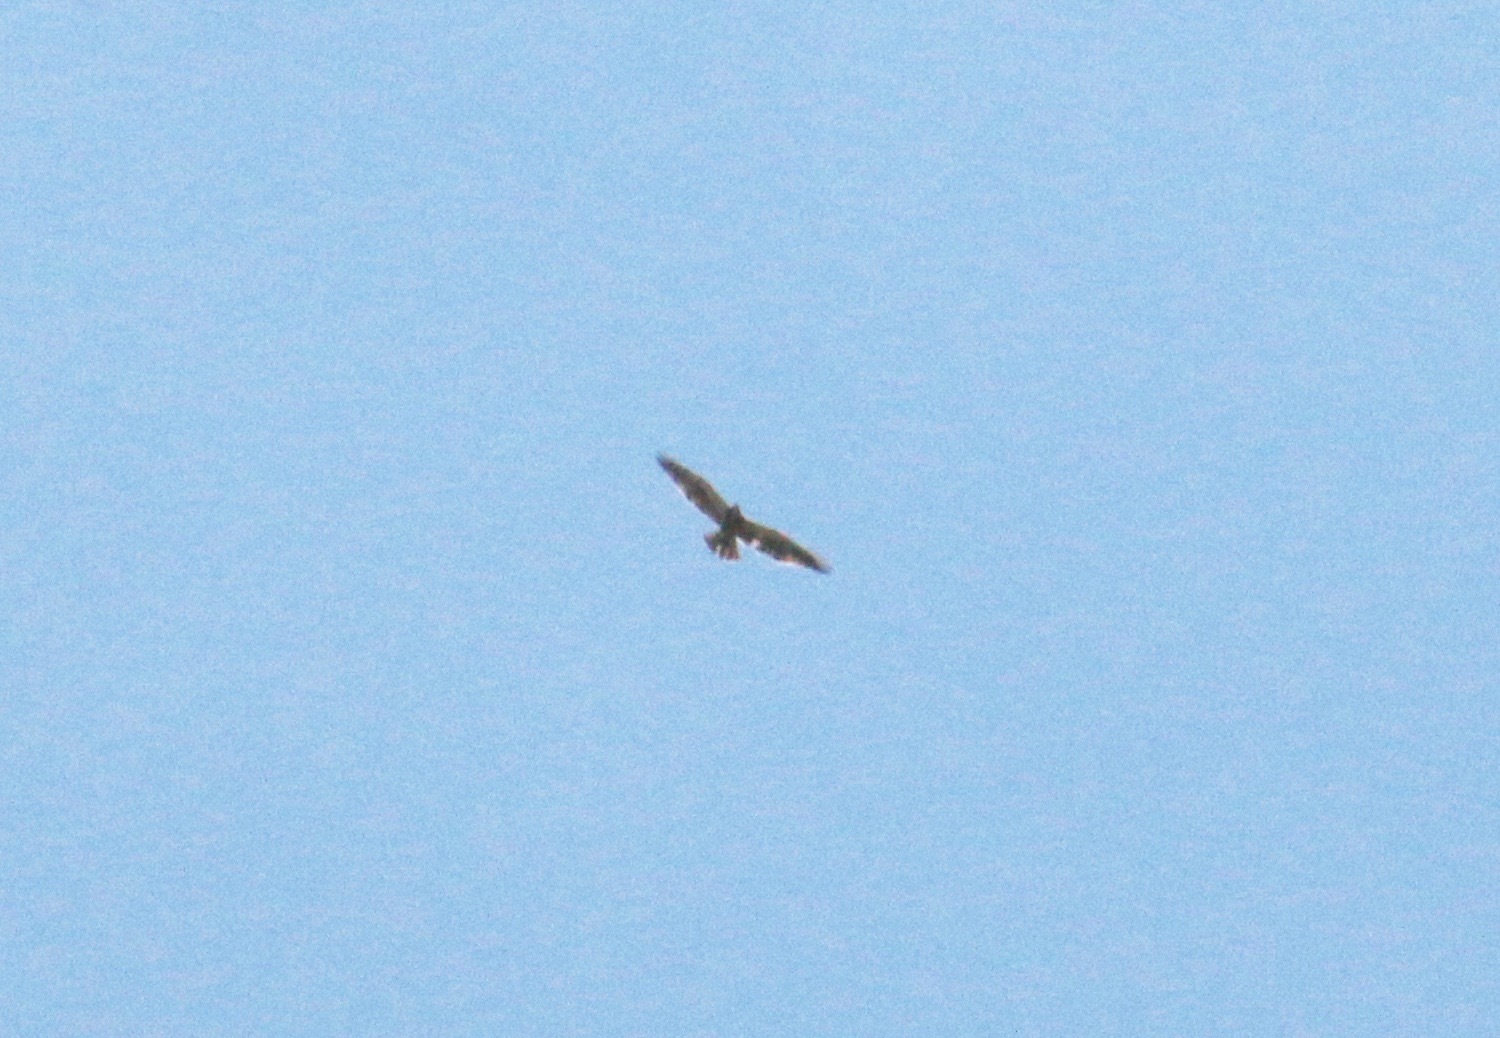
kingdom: Animalia
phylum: Chordata
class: Aves
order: Accipitriformes
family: Accipitridae
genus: Buteo
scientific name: Buteo swainsoni
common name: Swainson's hawk
